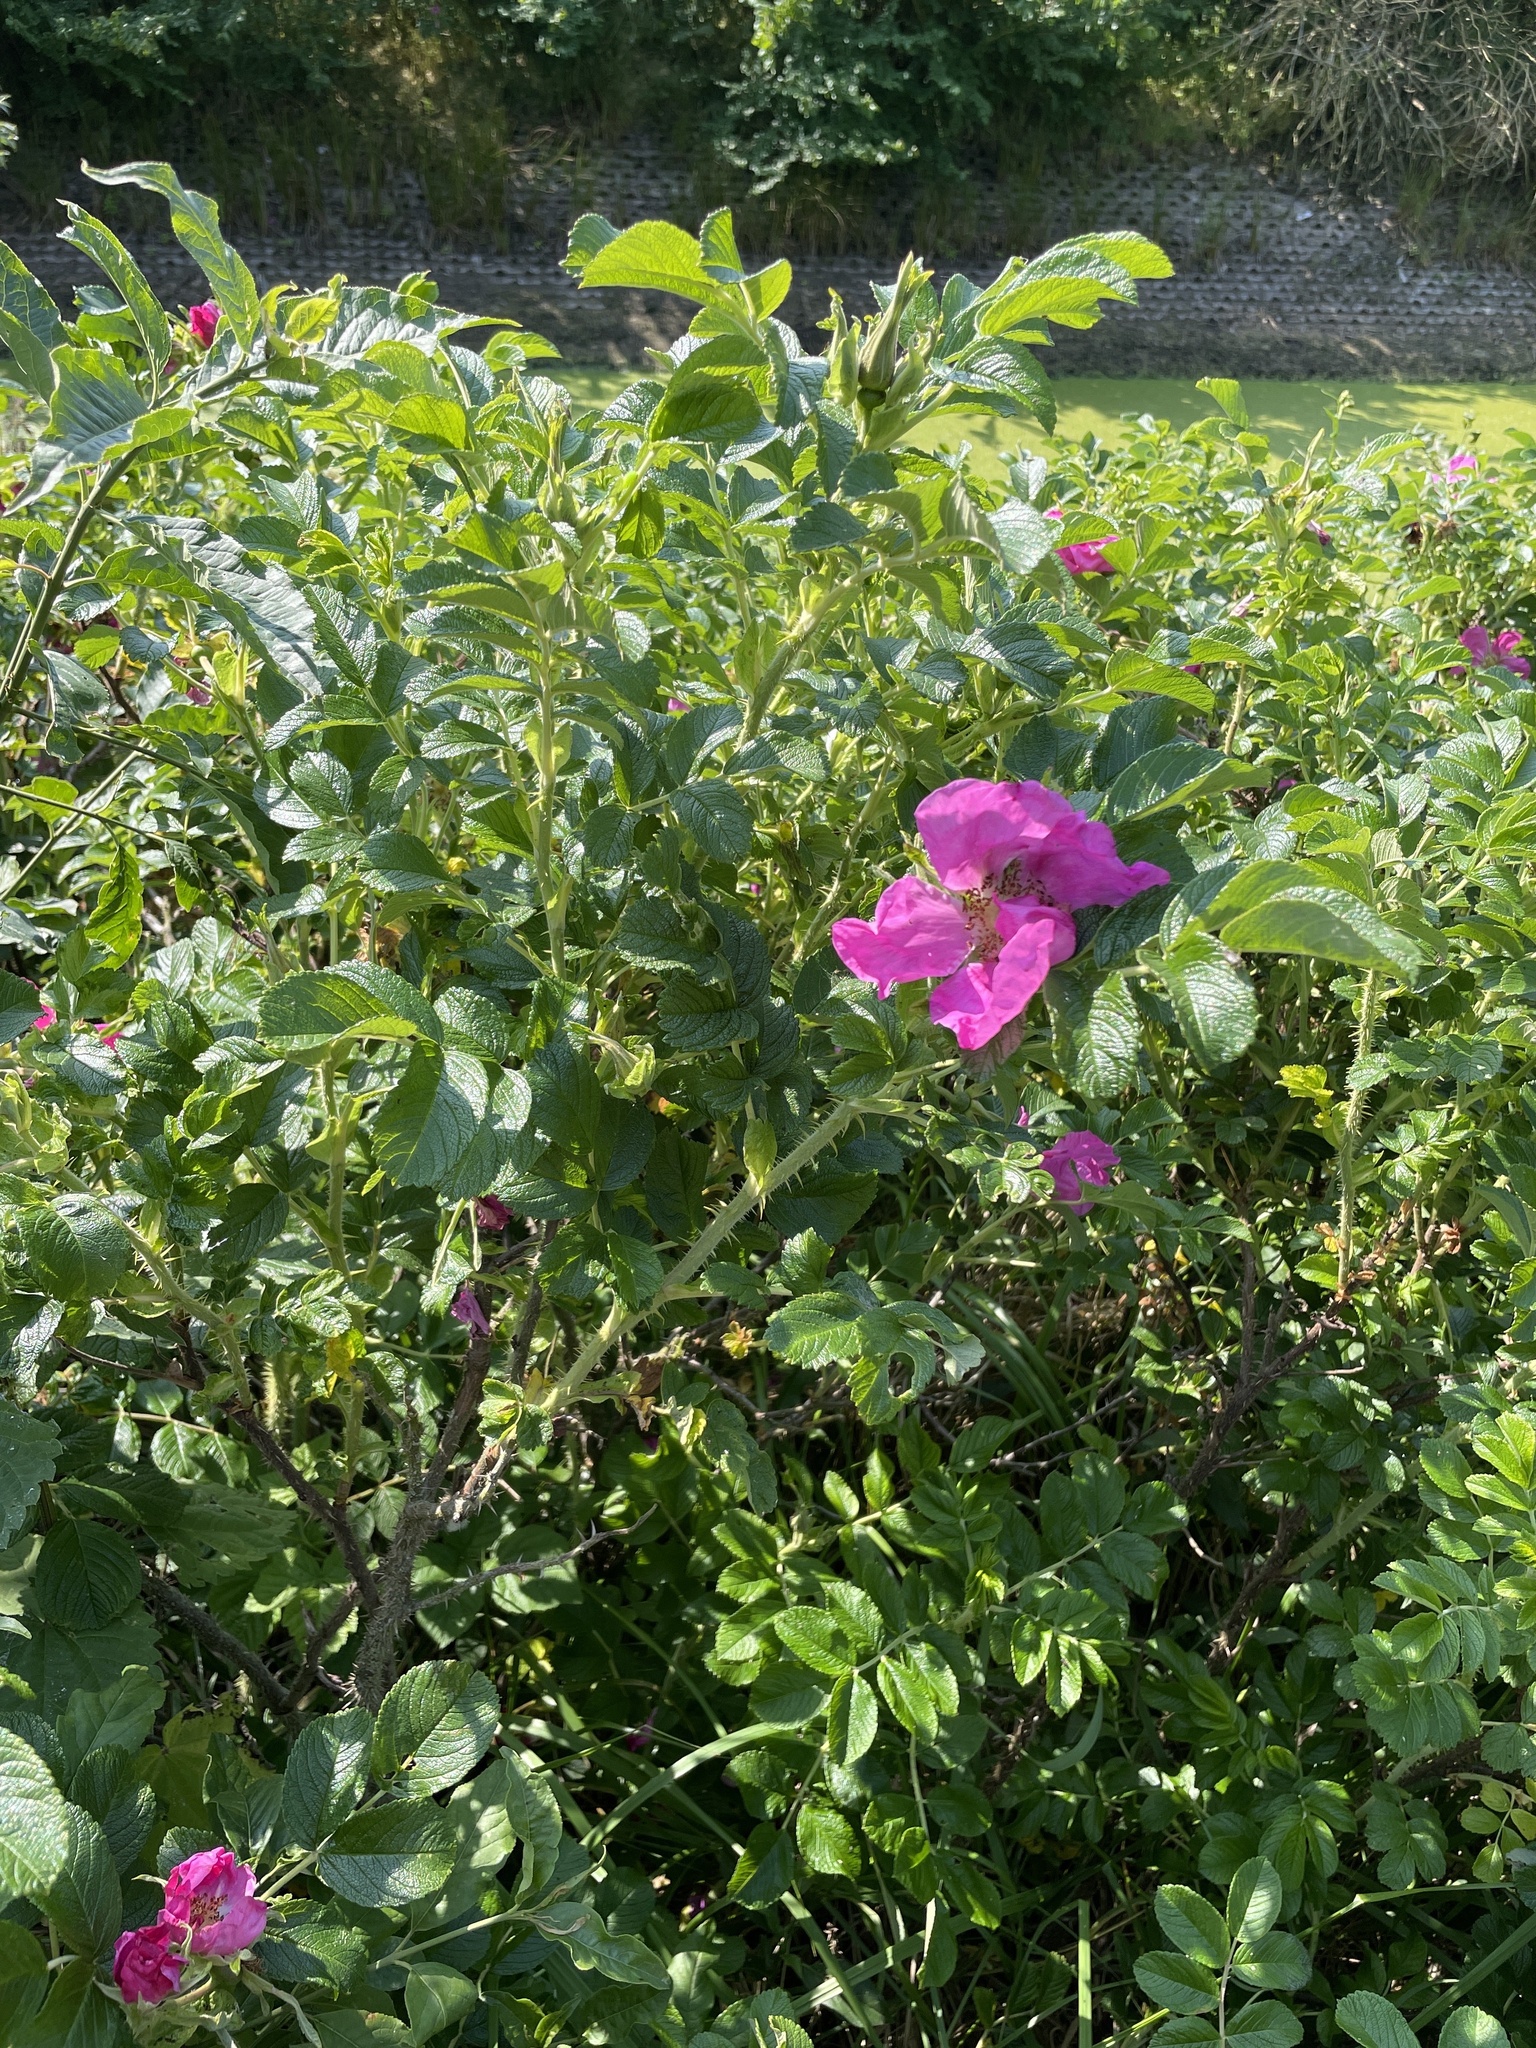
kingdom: Plantae
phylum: Tracheophyta
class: Magnoliopsida
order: Rosales
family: Rosaceae
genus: Rosa
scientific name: Rosa rugosa
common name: Japanese rose
